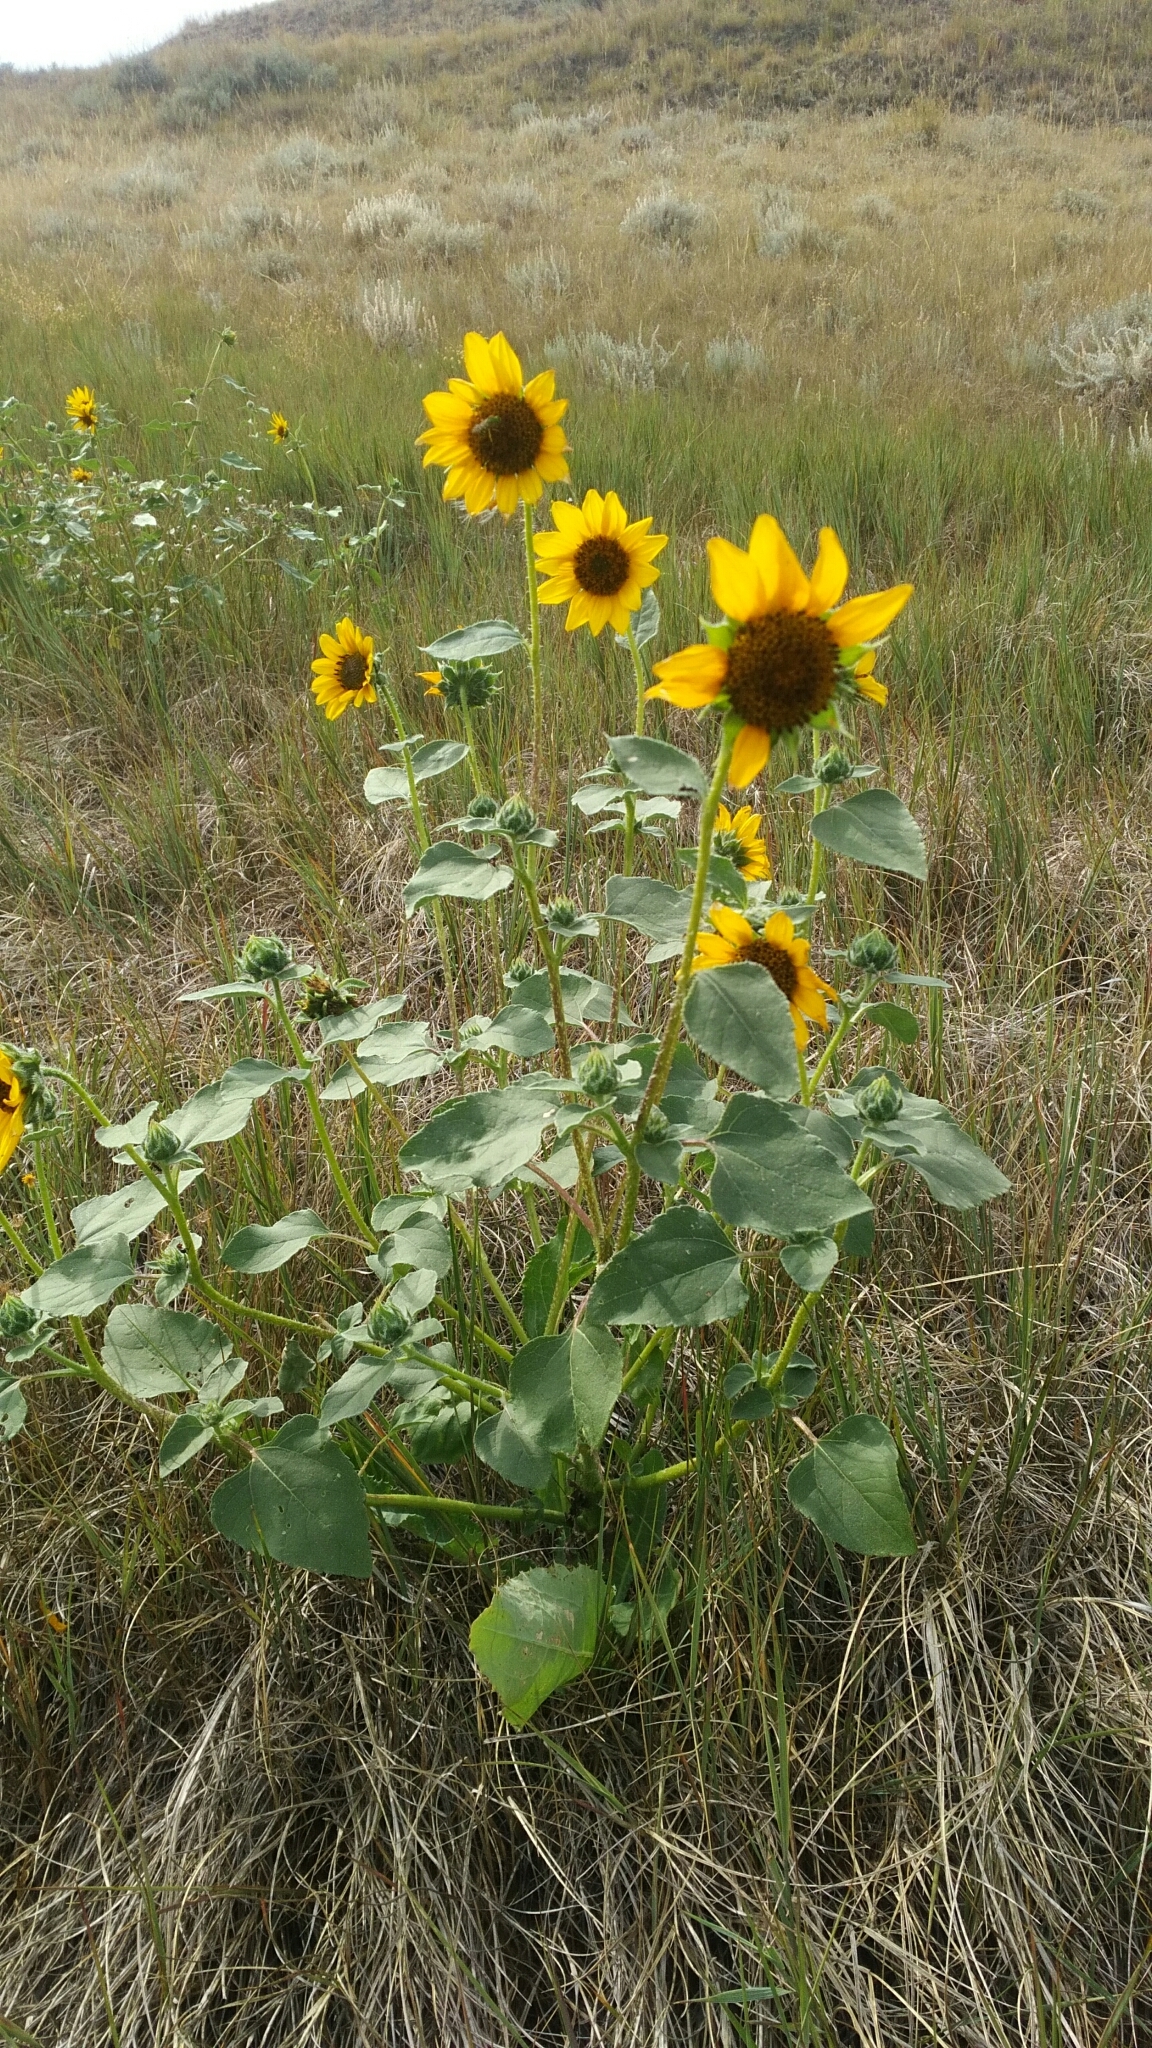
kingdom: Plantae
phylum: Tracheophyta
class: Magnoliopsida
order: Asterales
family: Asteraceae
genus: Helianthus
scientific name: Helianthus annuus
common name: Sunflower
